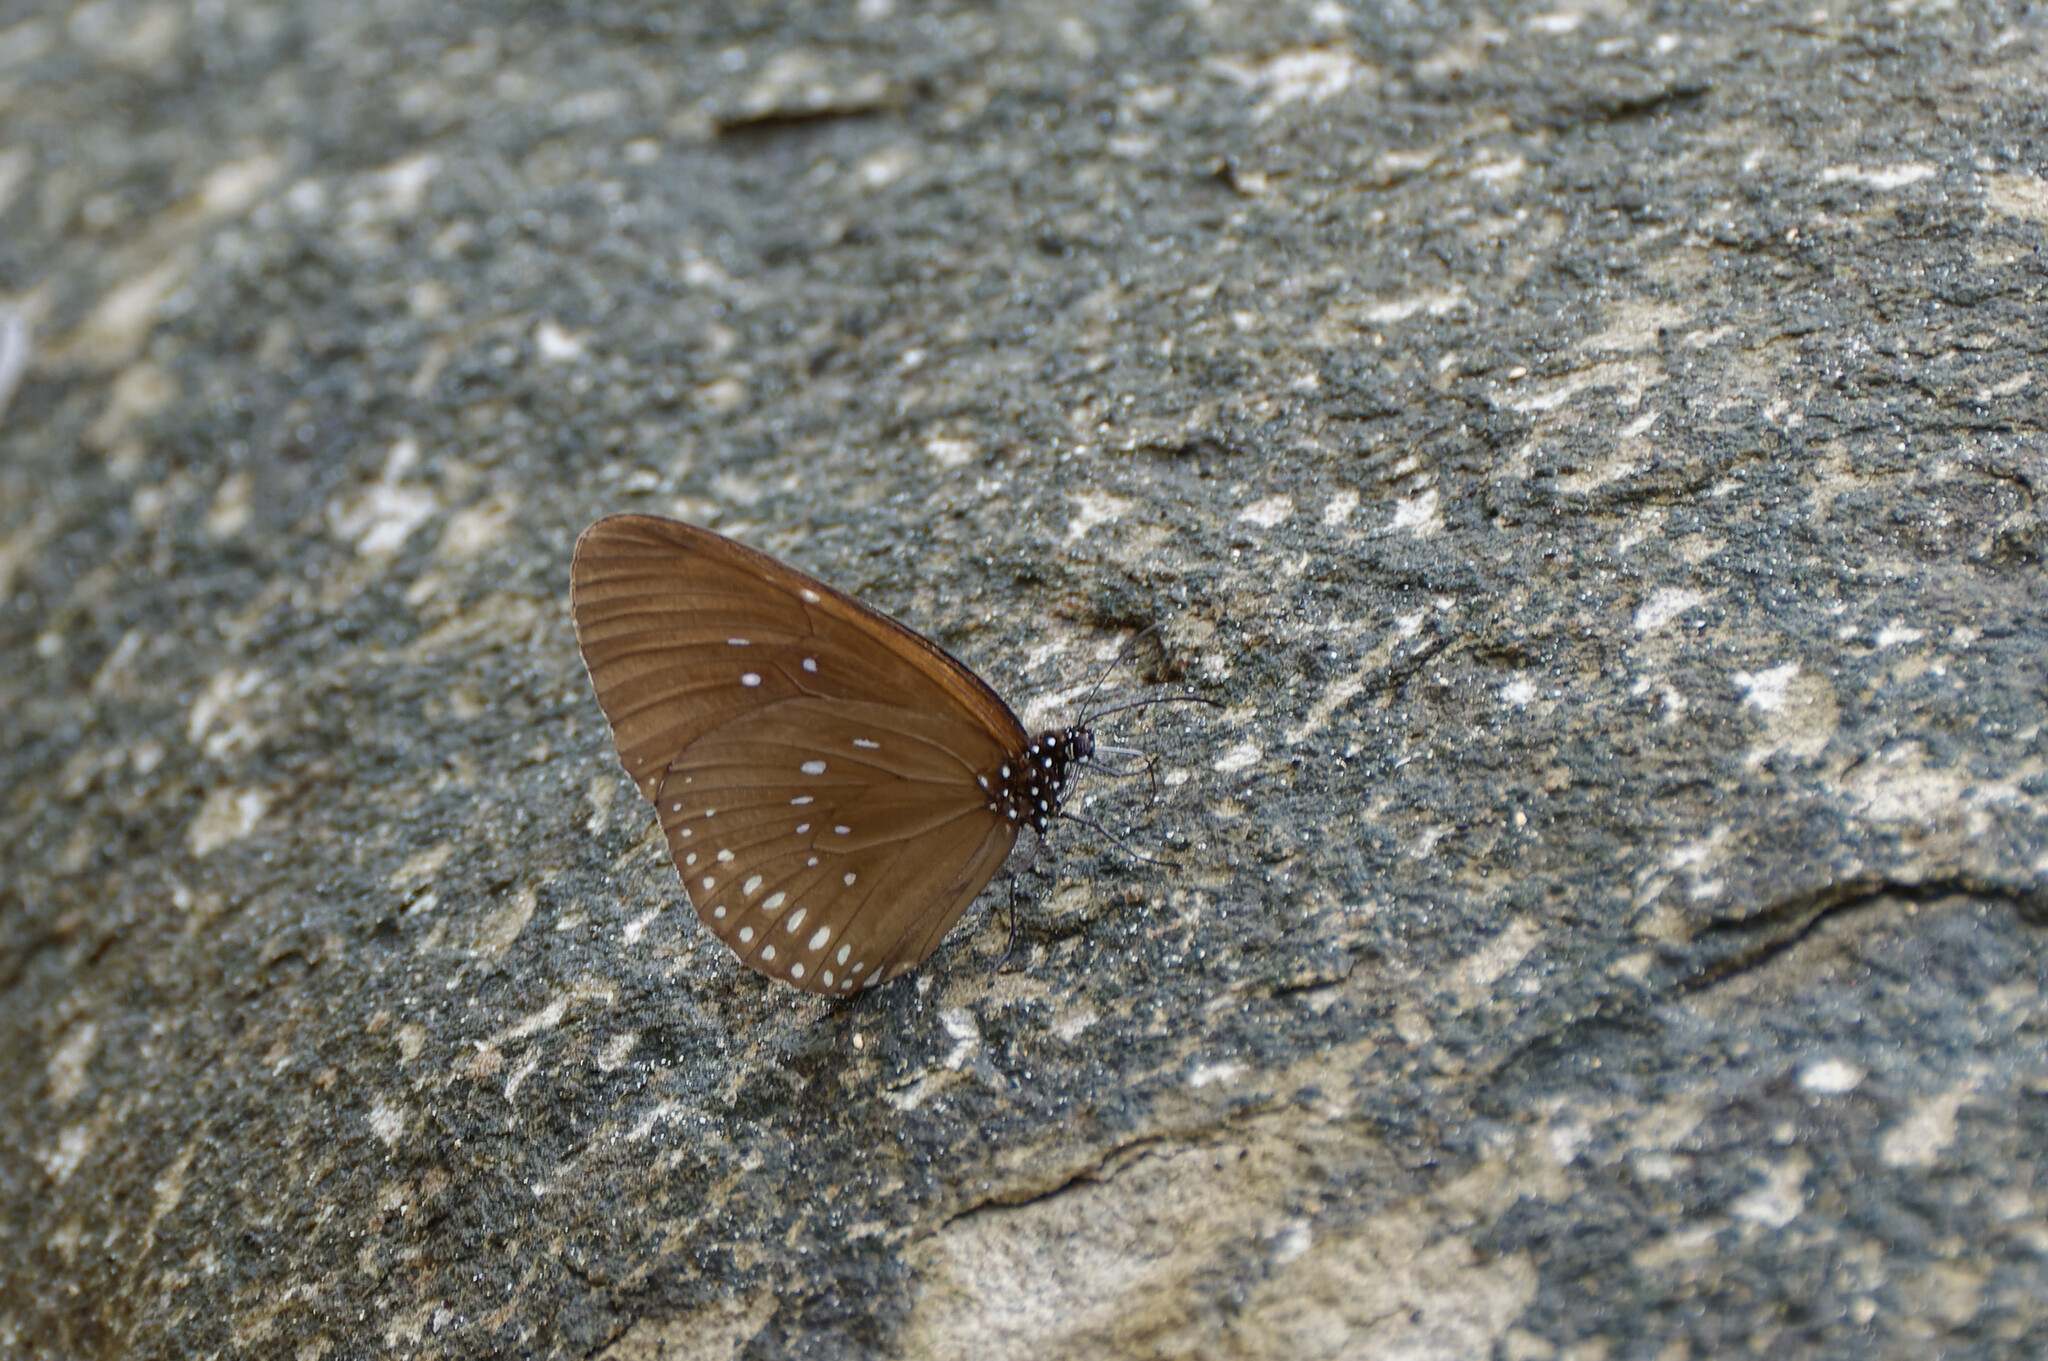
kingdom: Animalia
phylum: Arthropoda
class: Insecta
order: Lepidoptera
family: Nymphalidae
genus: Euploea
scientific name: Euploea core
